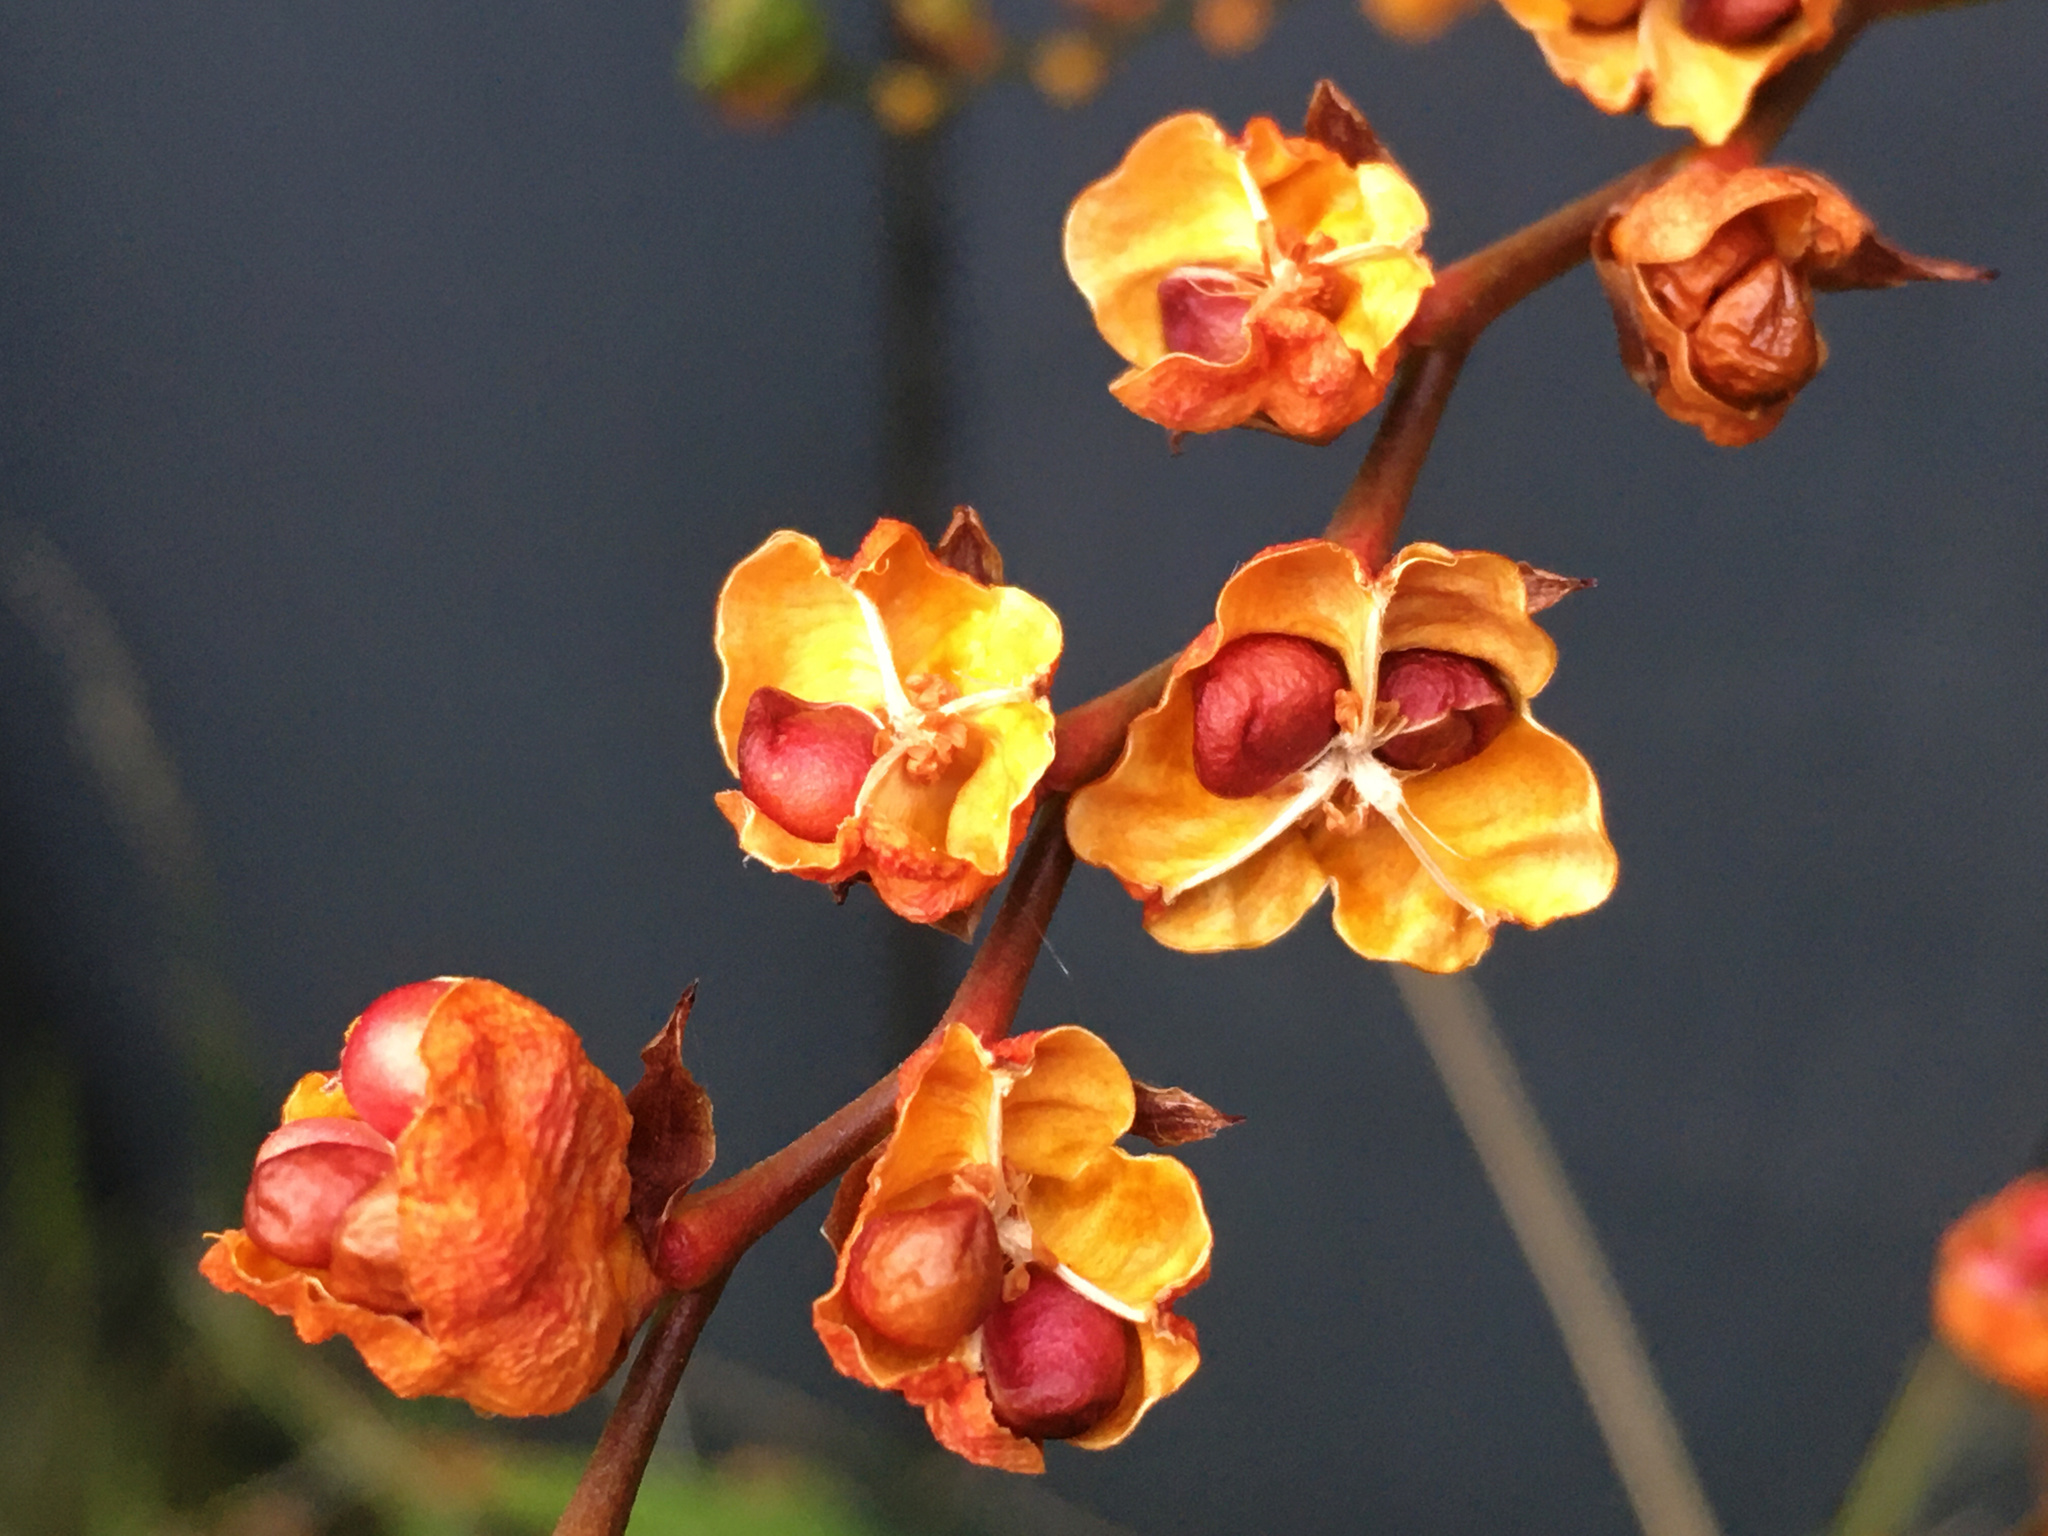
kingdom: Plantae
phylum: Tracheophyta
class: Liliopsida
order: Asparagales
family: Iridaceae
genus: Crocosmia
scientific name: Crocosmia crocosmiiflora
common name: Montbretia
